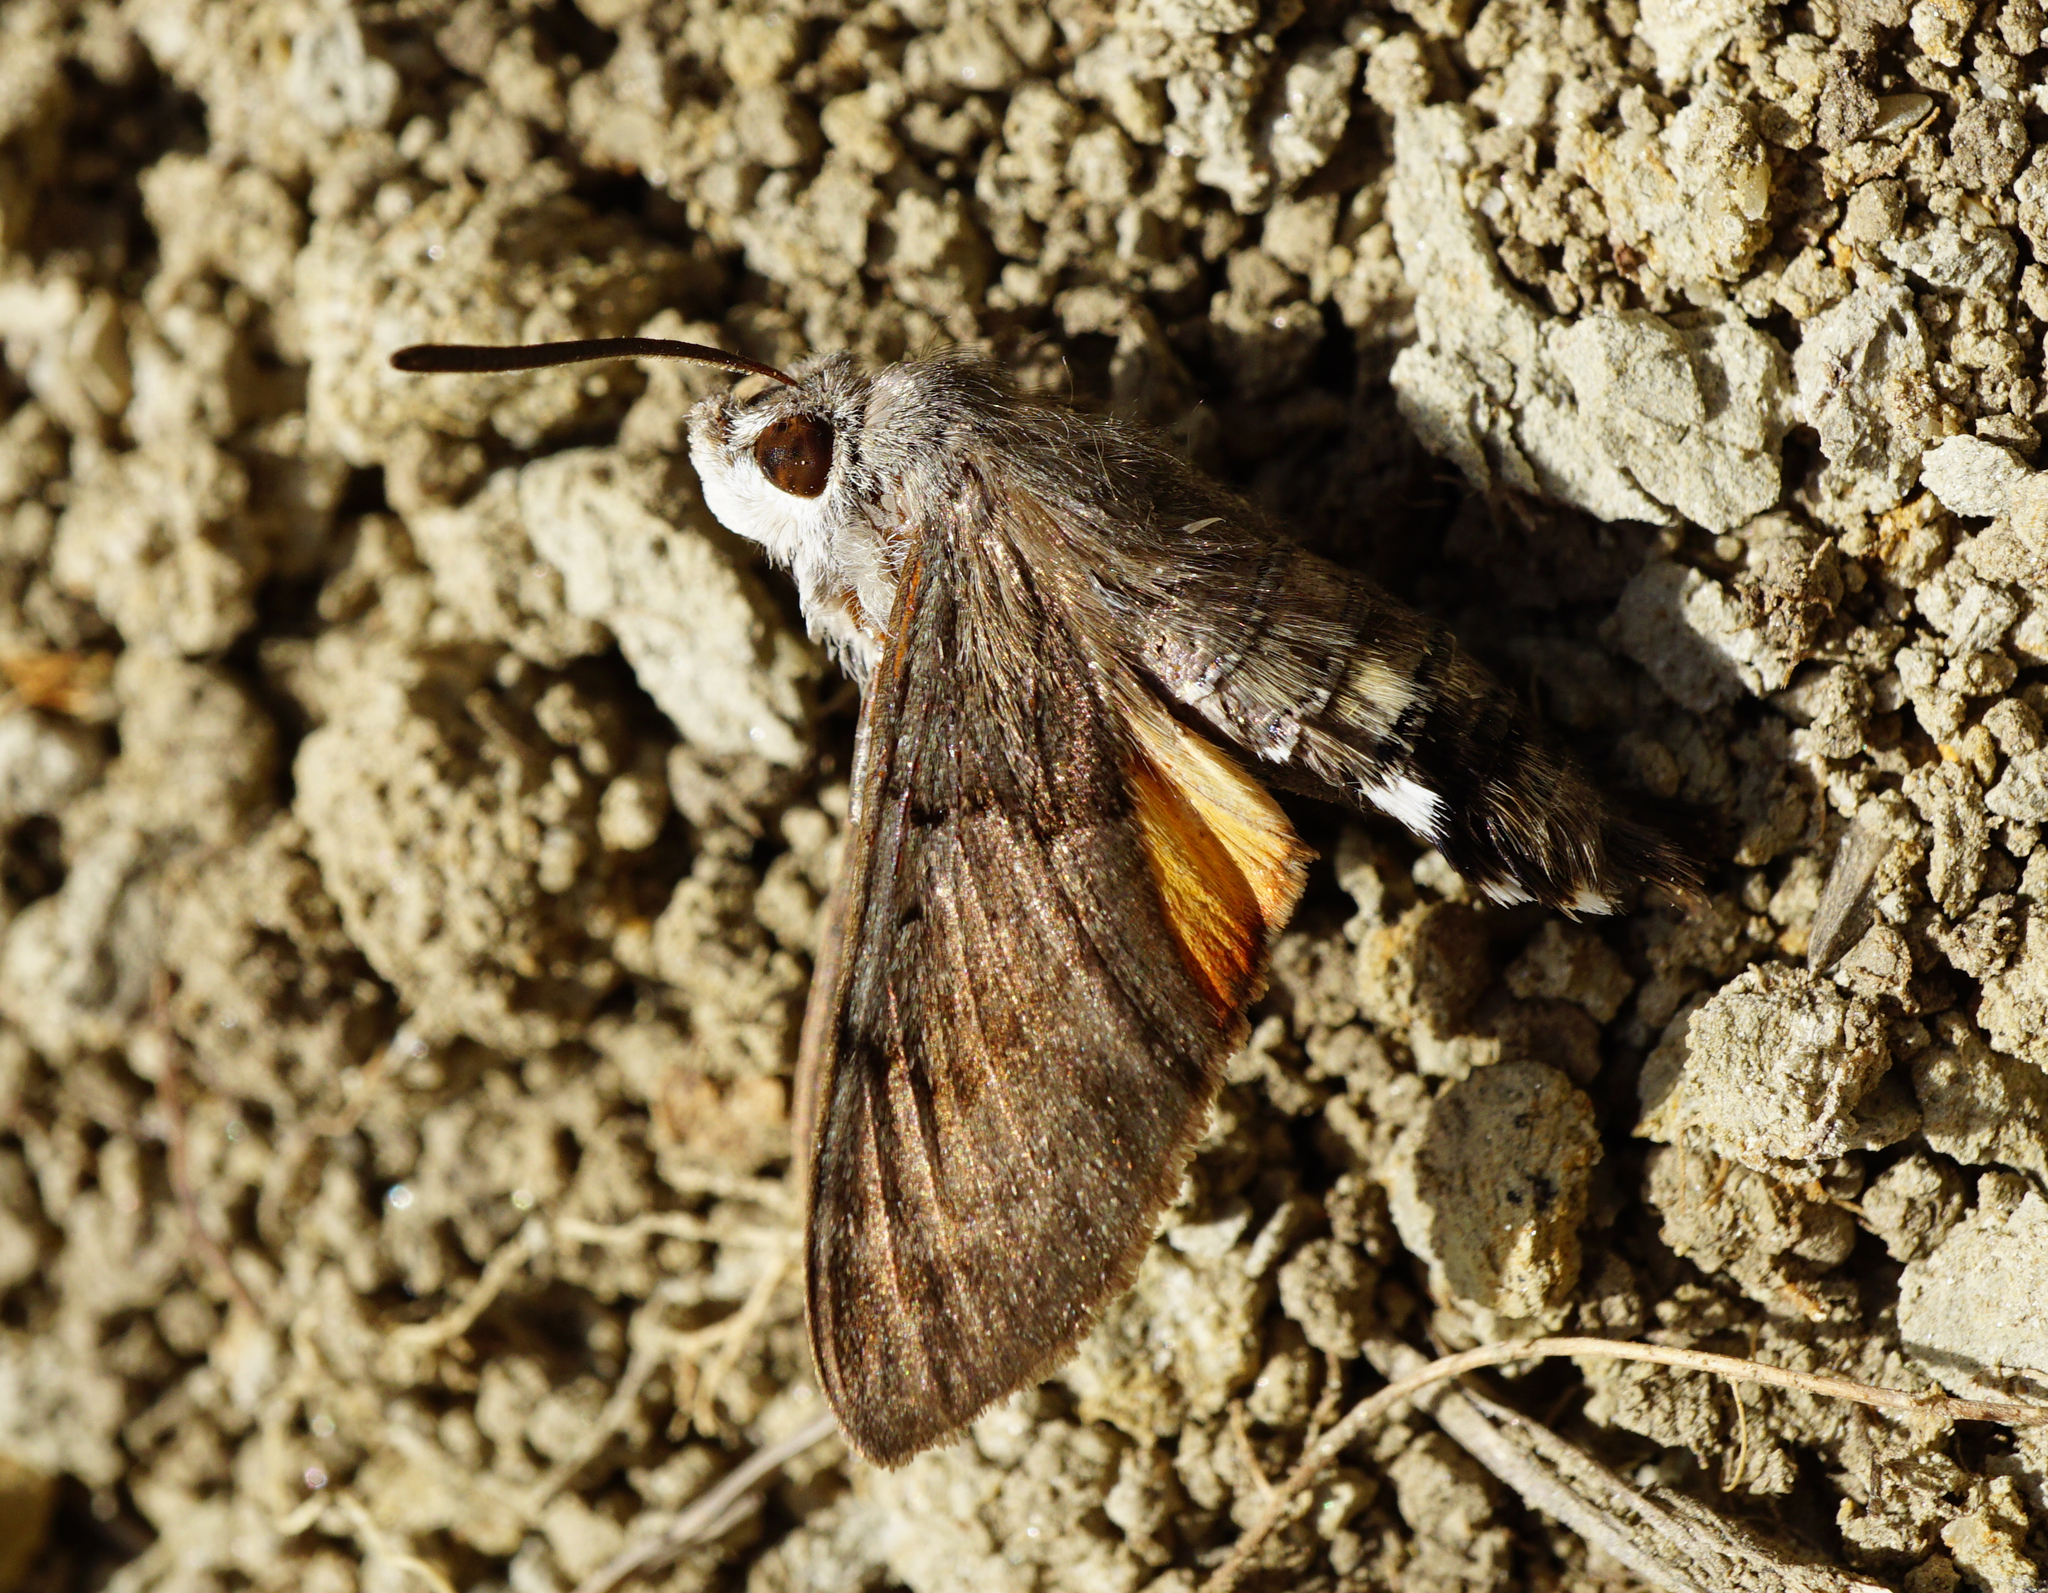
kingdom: Animalia
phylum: Arthropoda
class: Insecta
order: Lepidoptera
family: Sphingidae
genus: Macroglossum
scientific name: Macroglossum stellatarum
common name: Humming-bird hawk-moth
